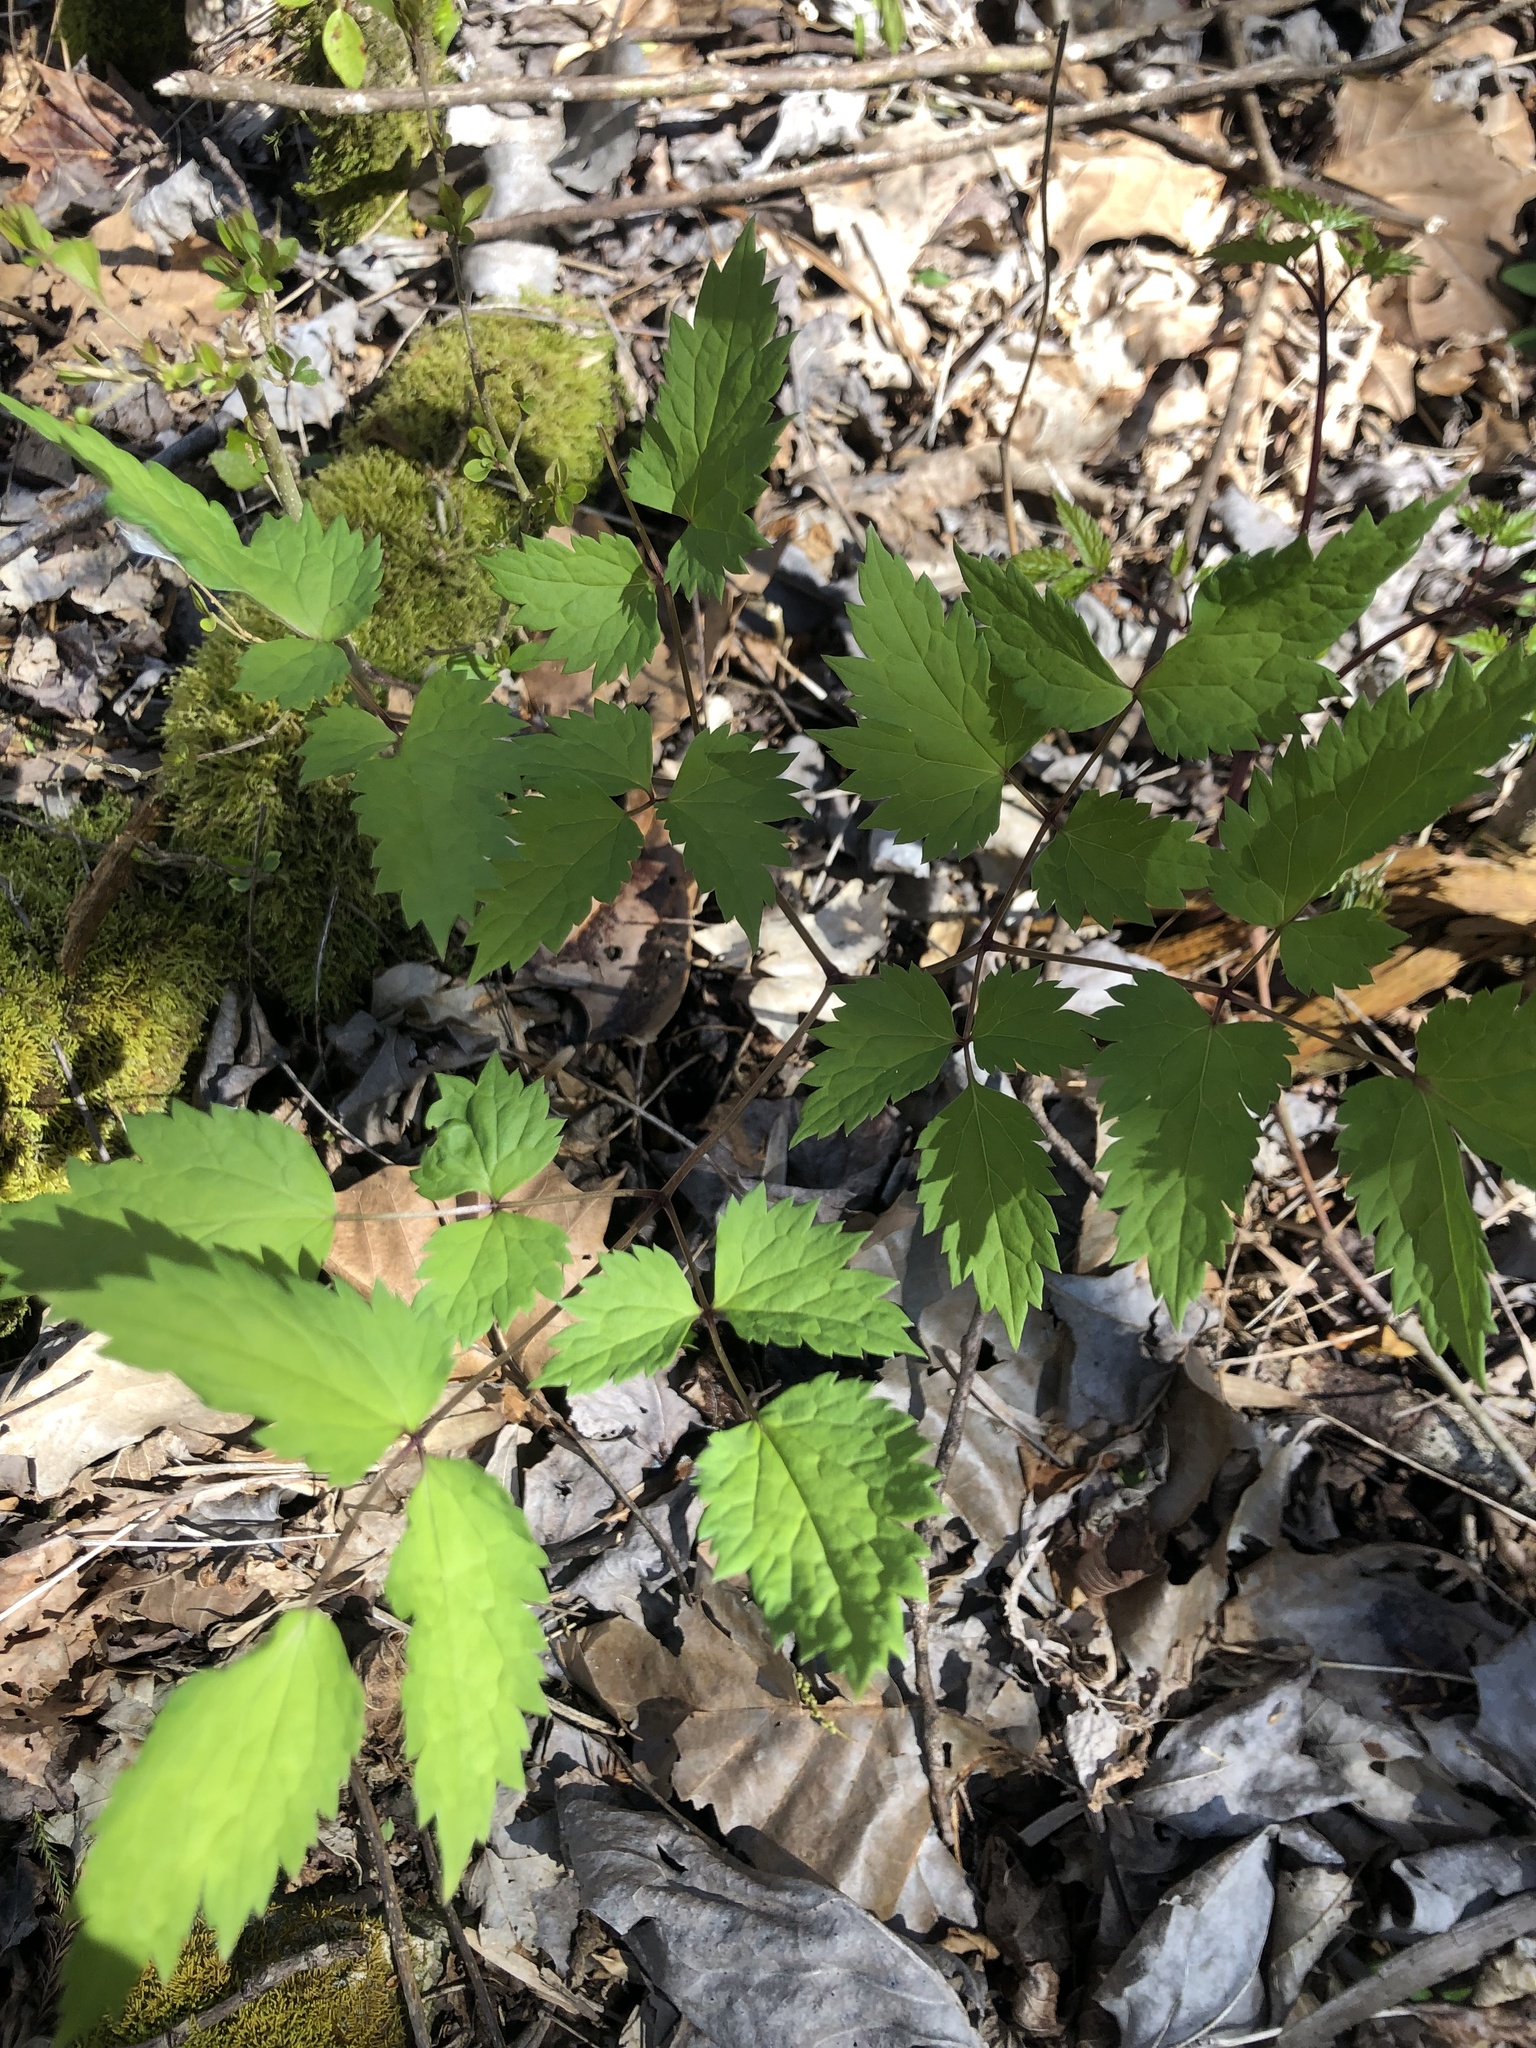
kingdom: Plantae
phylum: Tracheophyta
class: Magnoliopsida
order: Ranunculales
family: Ranunculaceae
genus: Actaea
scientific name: Actaea pachypoda
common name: Doll's-eyes
